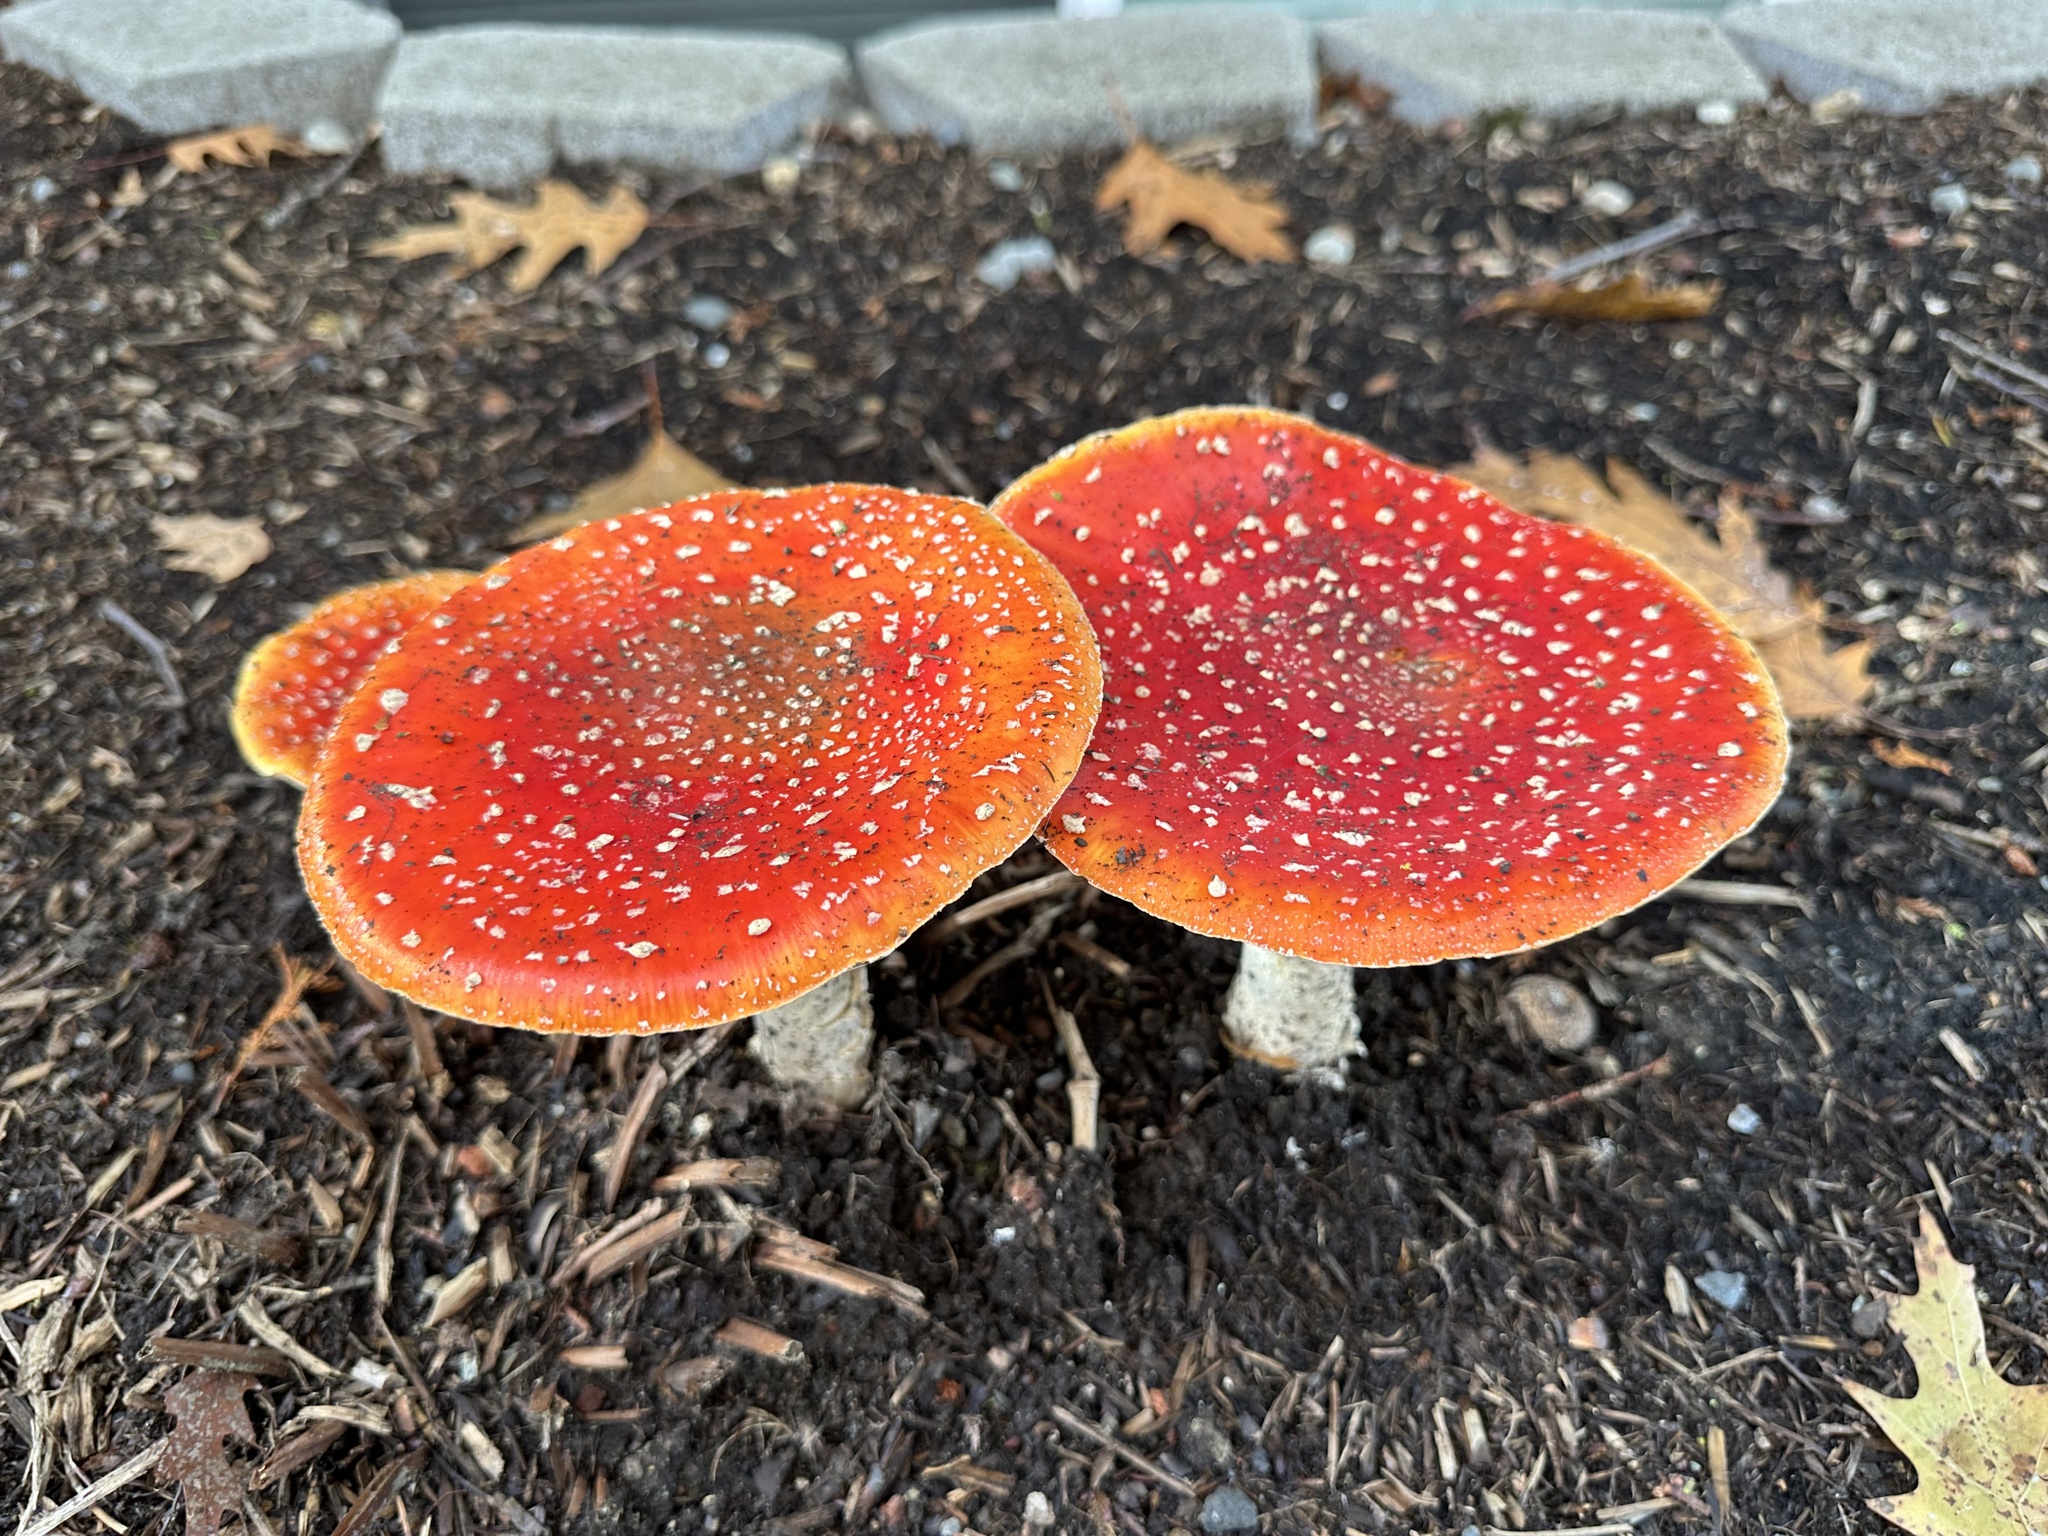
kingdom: Fungi
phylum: Basidiomycota
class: Agaricomycetes
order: Agaricales
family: Amanitaceae
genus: Amanita
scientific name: Amanita muscaria
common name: Fly agaric
